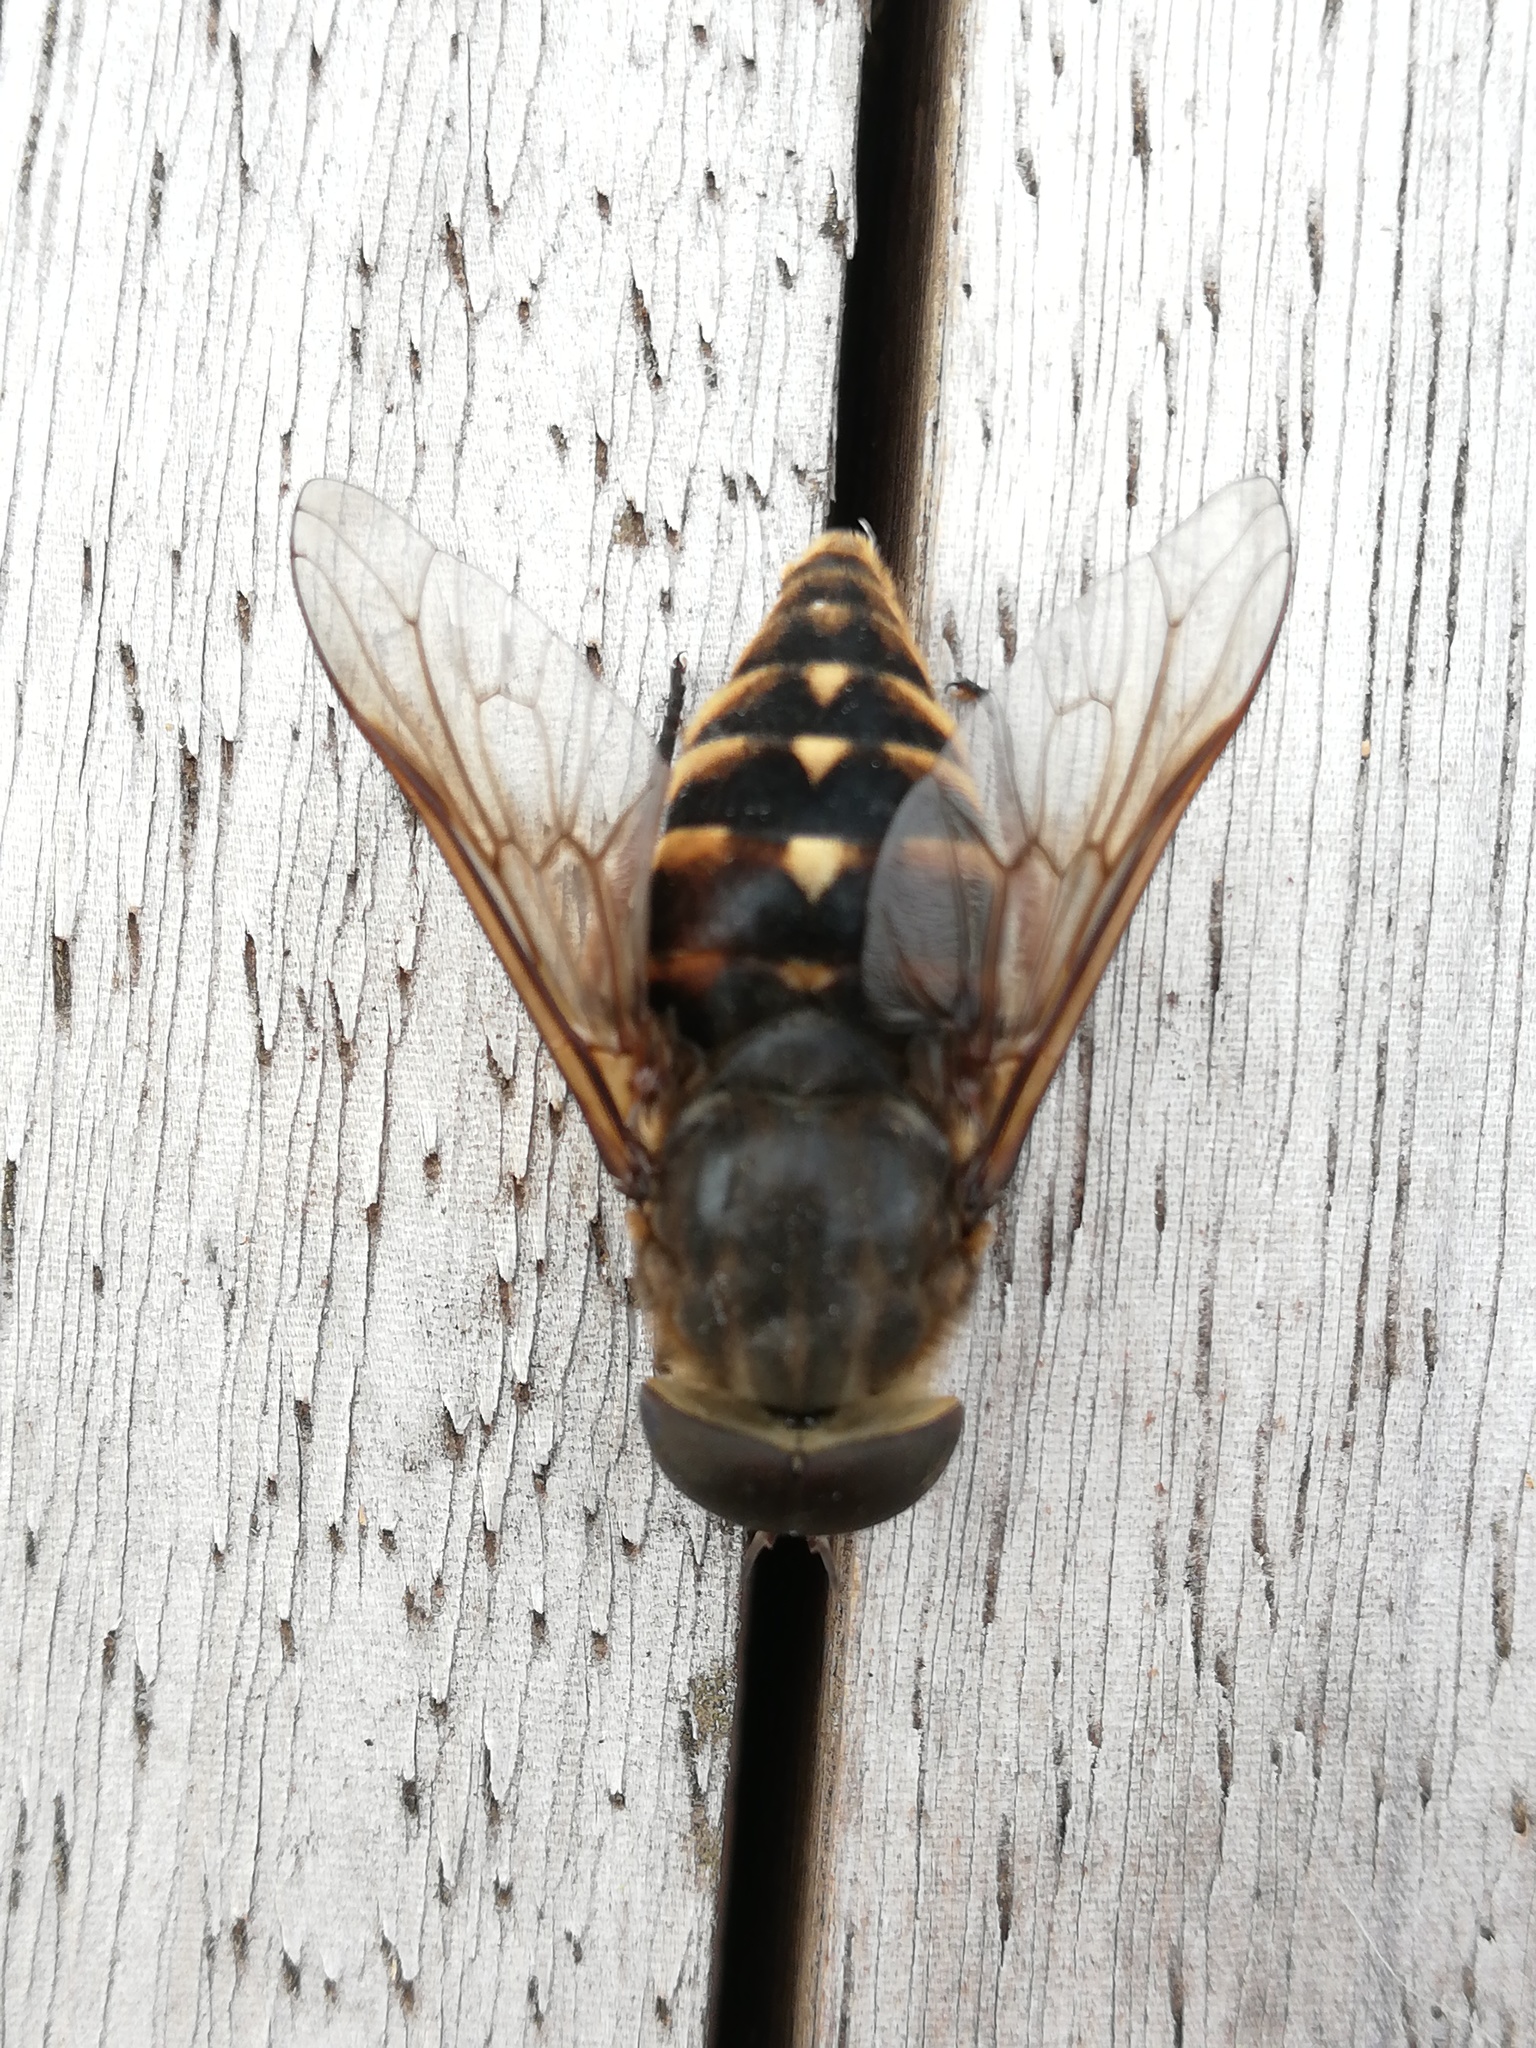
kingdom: Animalia
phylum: Arthropoda
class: Insecta
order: Diptera
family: Tabanidae
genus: Tabanus
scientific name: Tabanus sudeticus
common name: Dark giant horsefly
